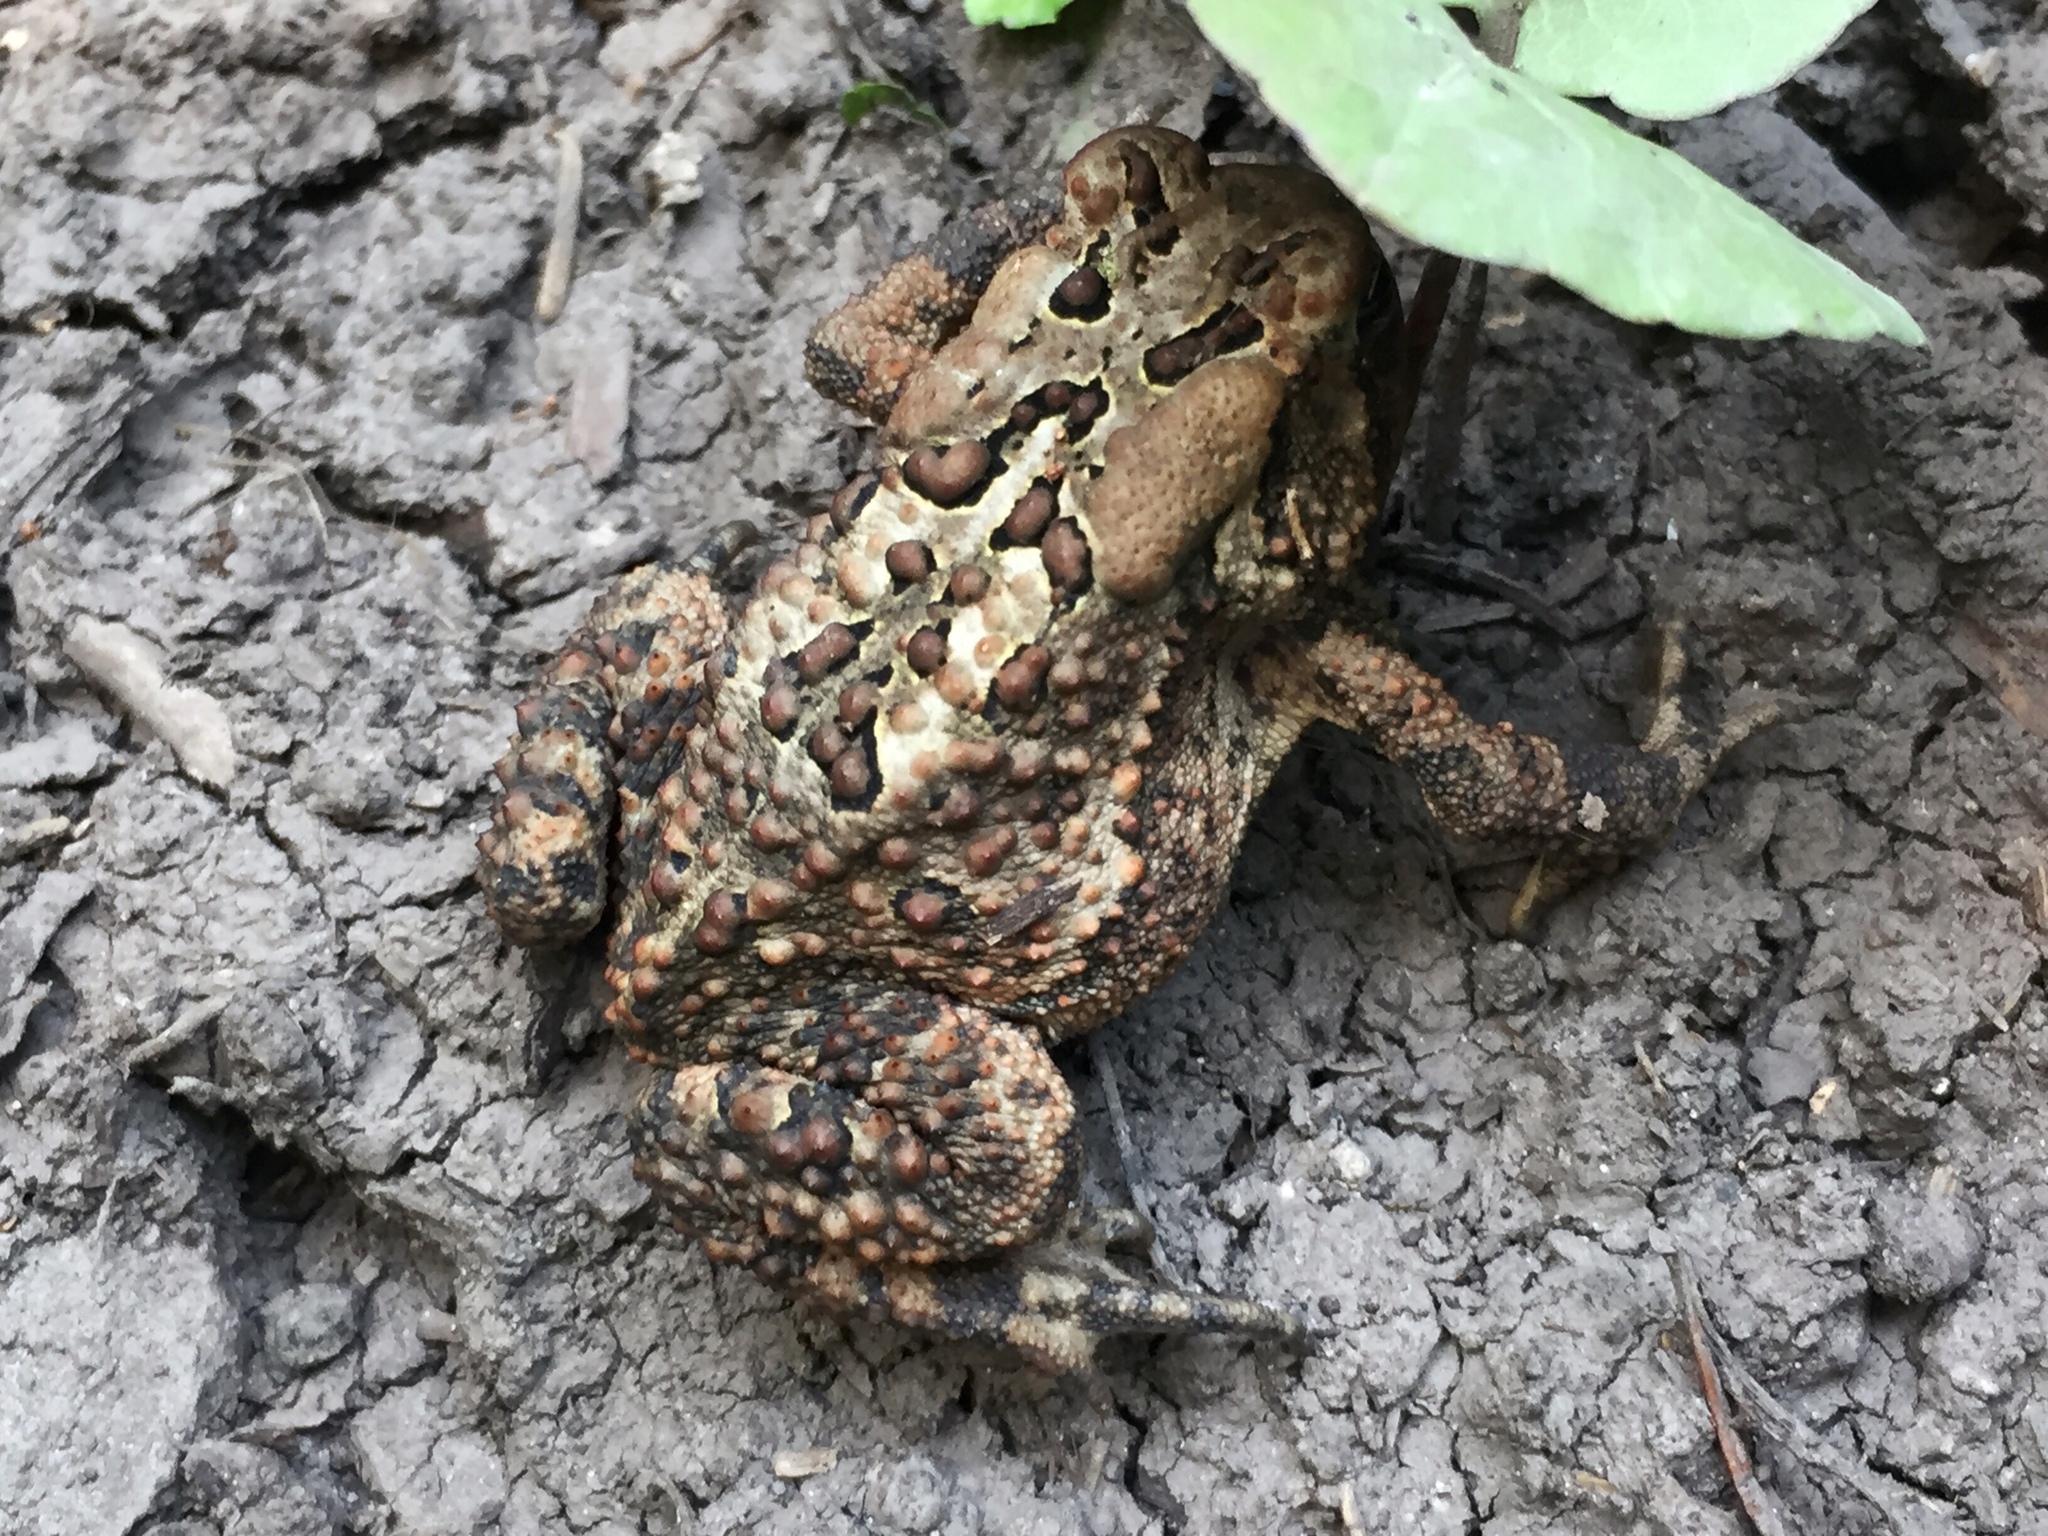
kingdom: Animalia
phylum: Chordata
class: Amphibia
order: Anura
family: Bufonidae
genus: Anaxyrus
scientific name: Anaxyrus americanus
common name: American toad
